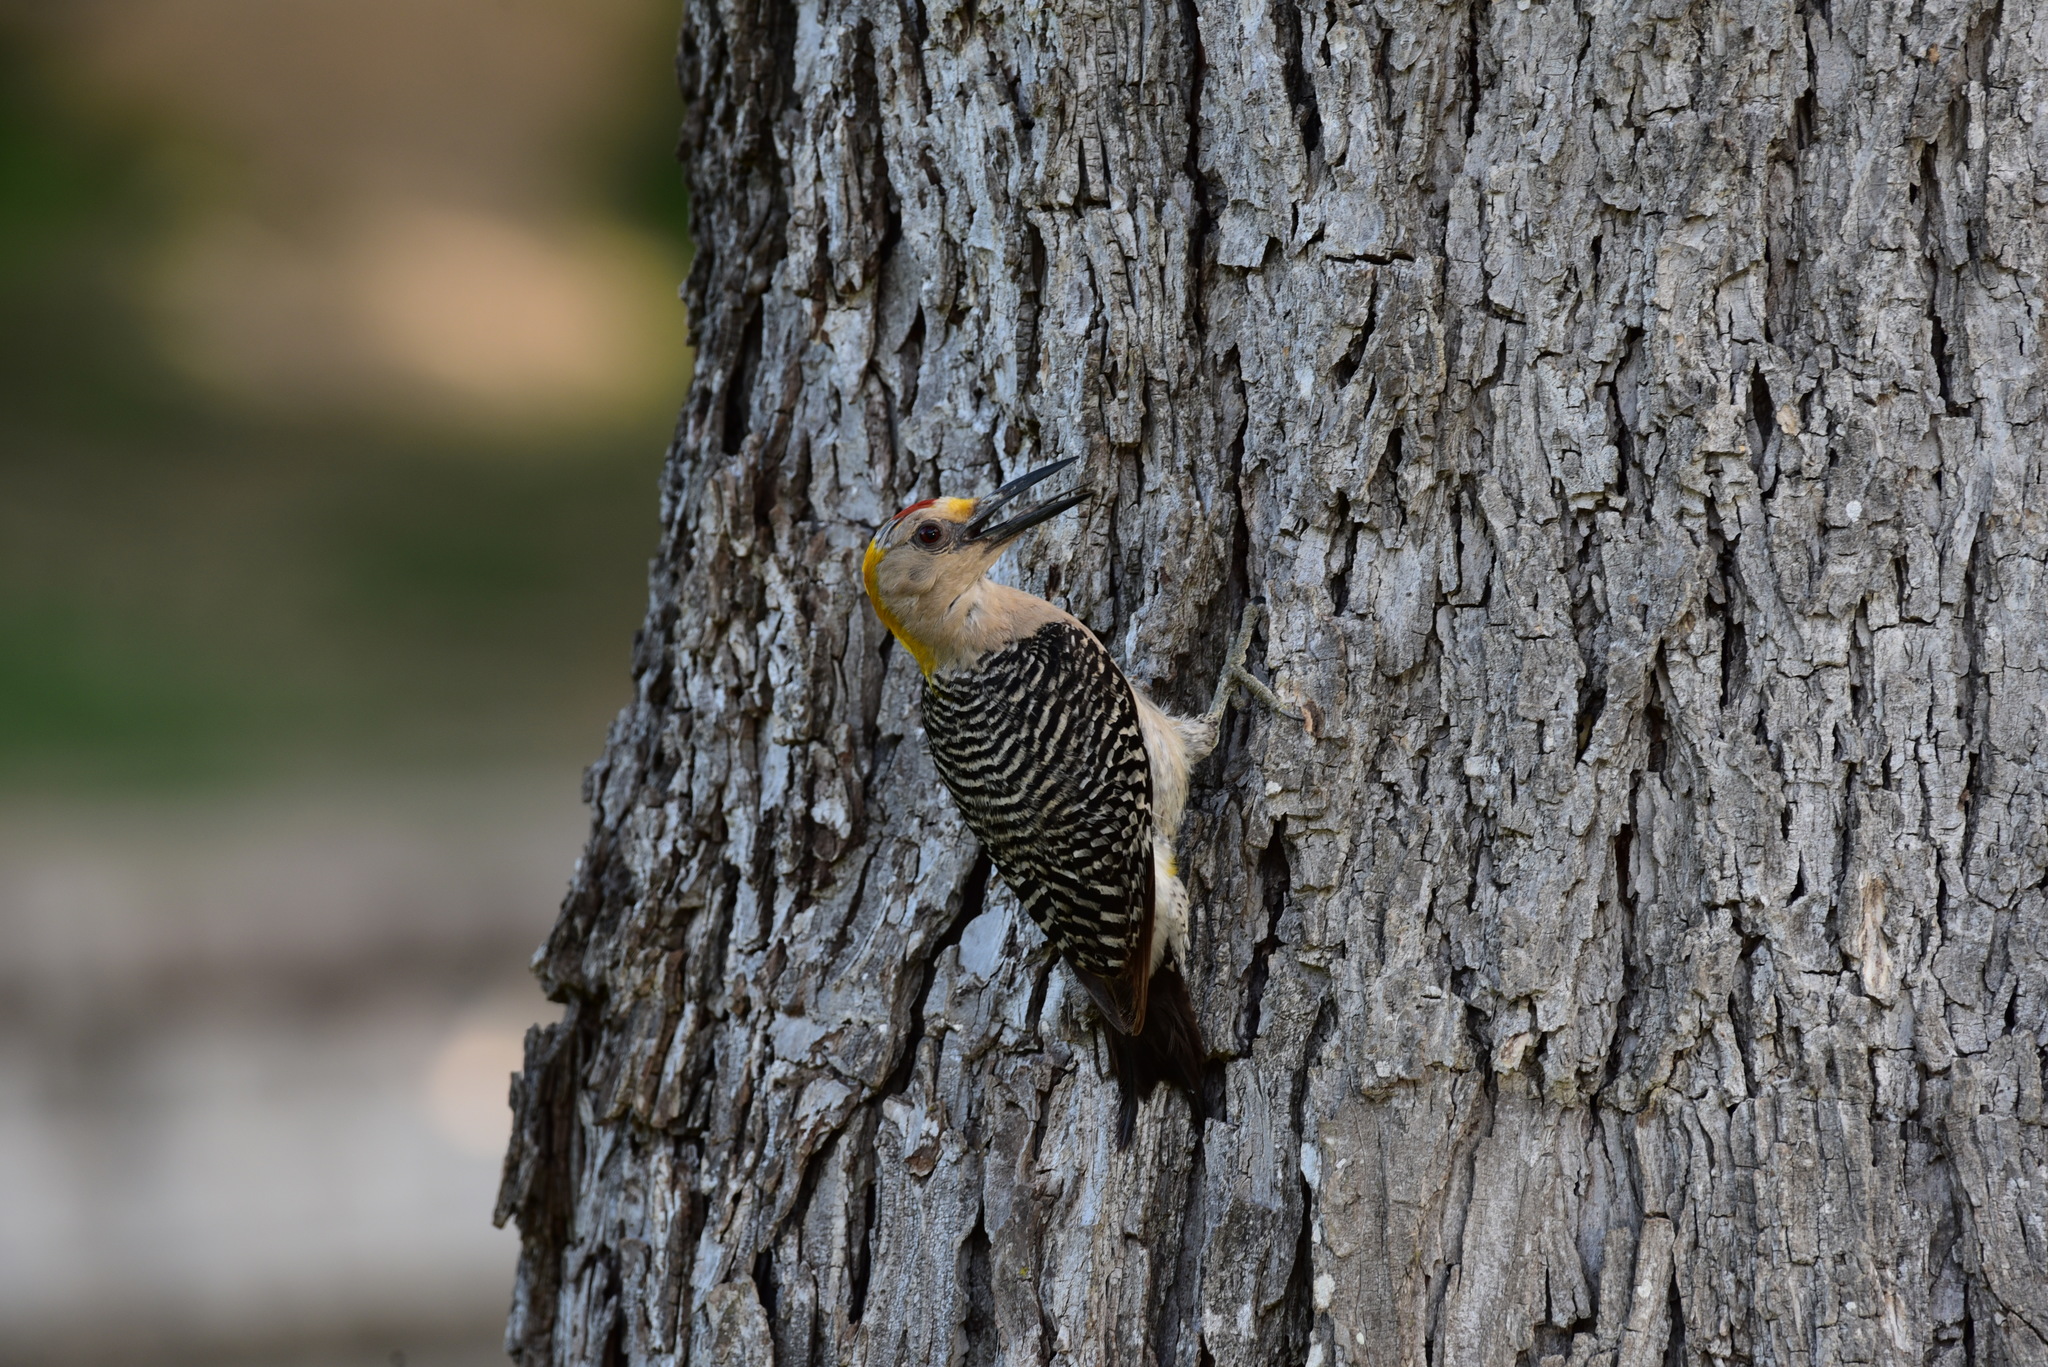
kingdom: Animalia
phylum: Chordata
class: Aves
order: Piciformes
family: Picidae
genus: Melanerpes
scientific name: Melanerpes aurifrons
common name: Golden-fronted woodpecker
